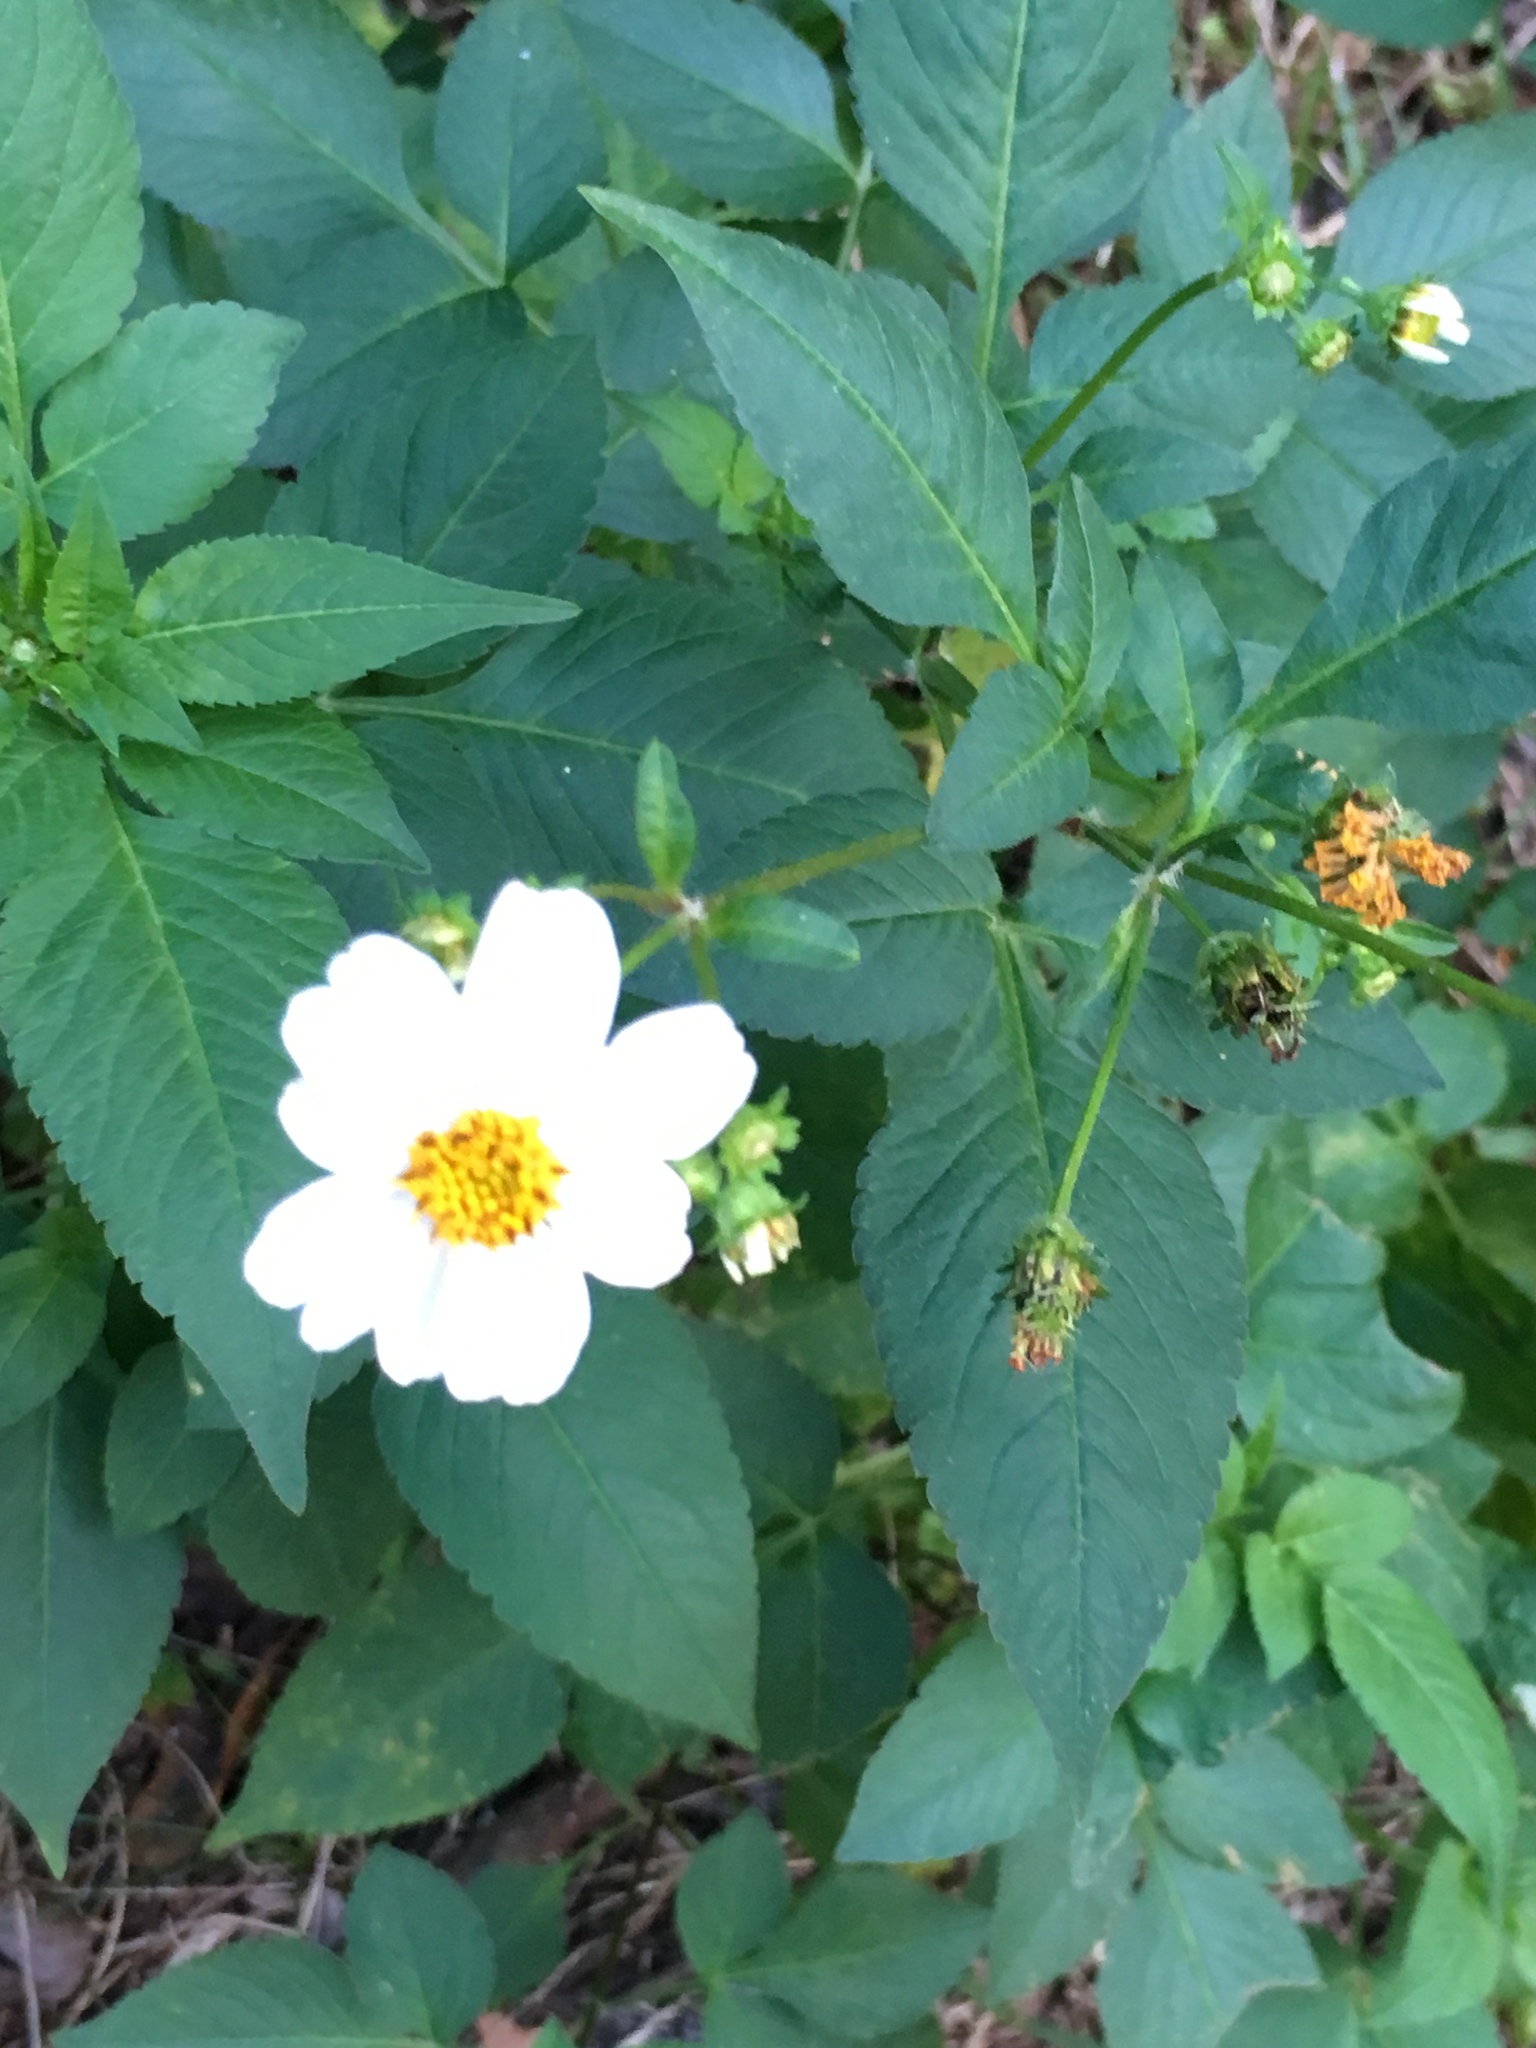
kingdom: Plantae
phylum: Tracheophyta
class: Magnoliopsida
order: Asterales
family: Asteraceae
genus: Bidens
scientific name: Bidens alba
